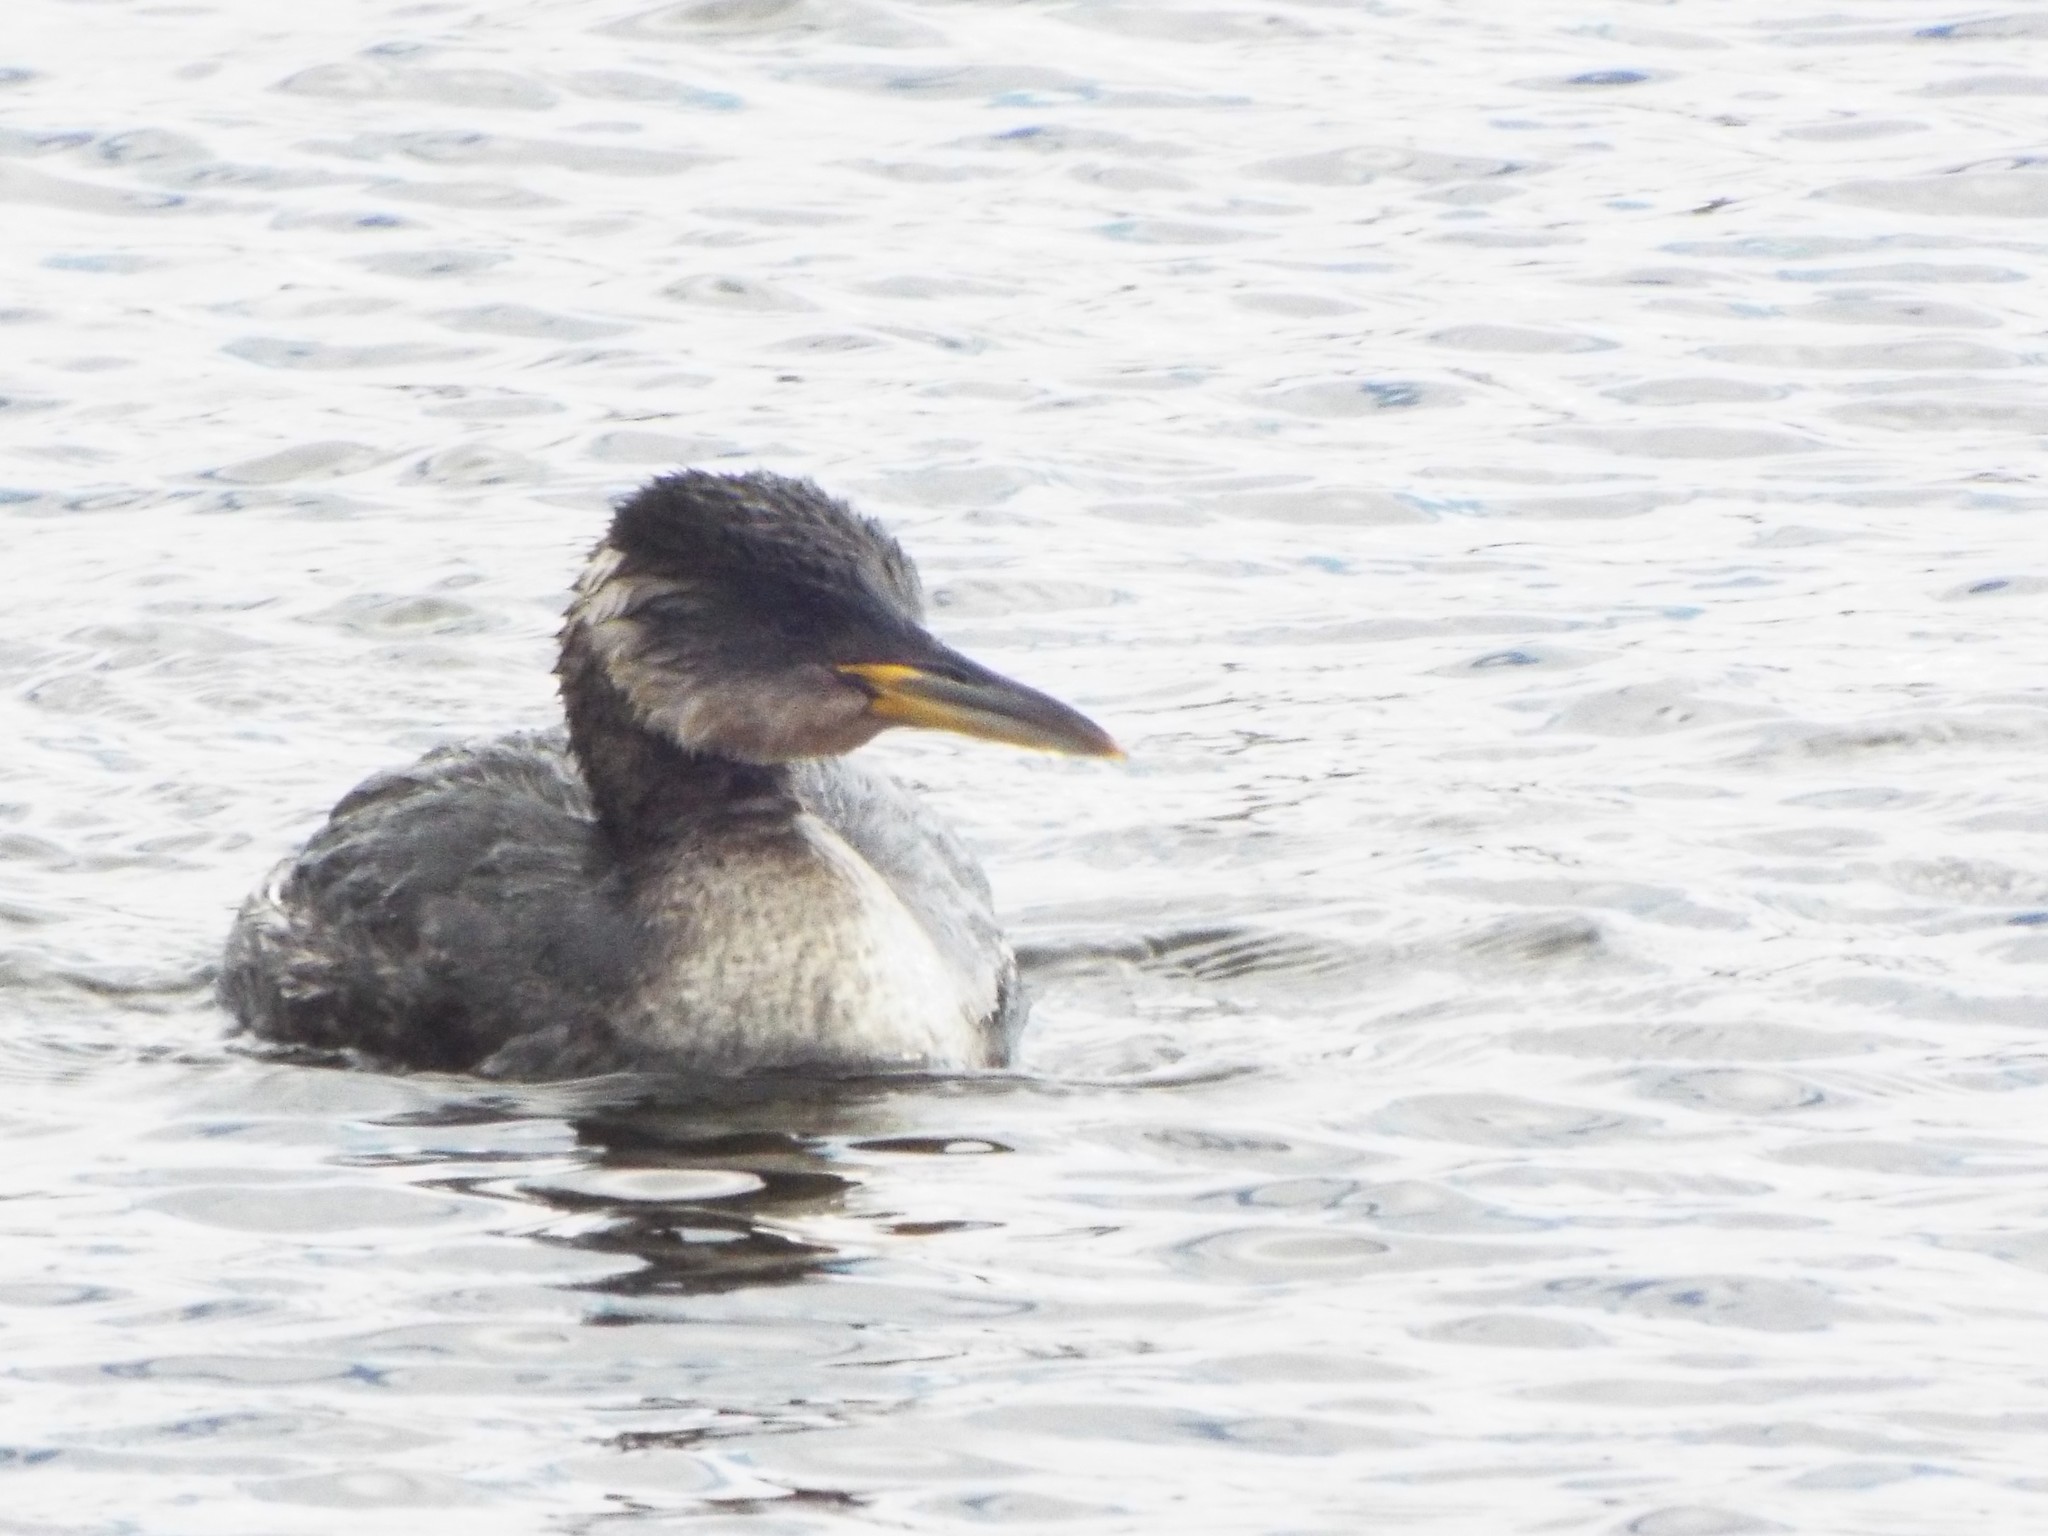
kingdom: Animalia
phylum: Chordata
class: Aves
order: Podicipediformes
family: Podicipedidae
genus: Podiceps
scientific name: Podiceps grisegena
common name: Red-necked grebe
